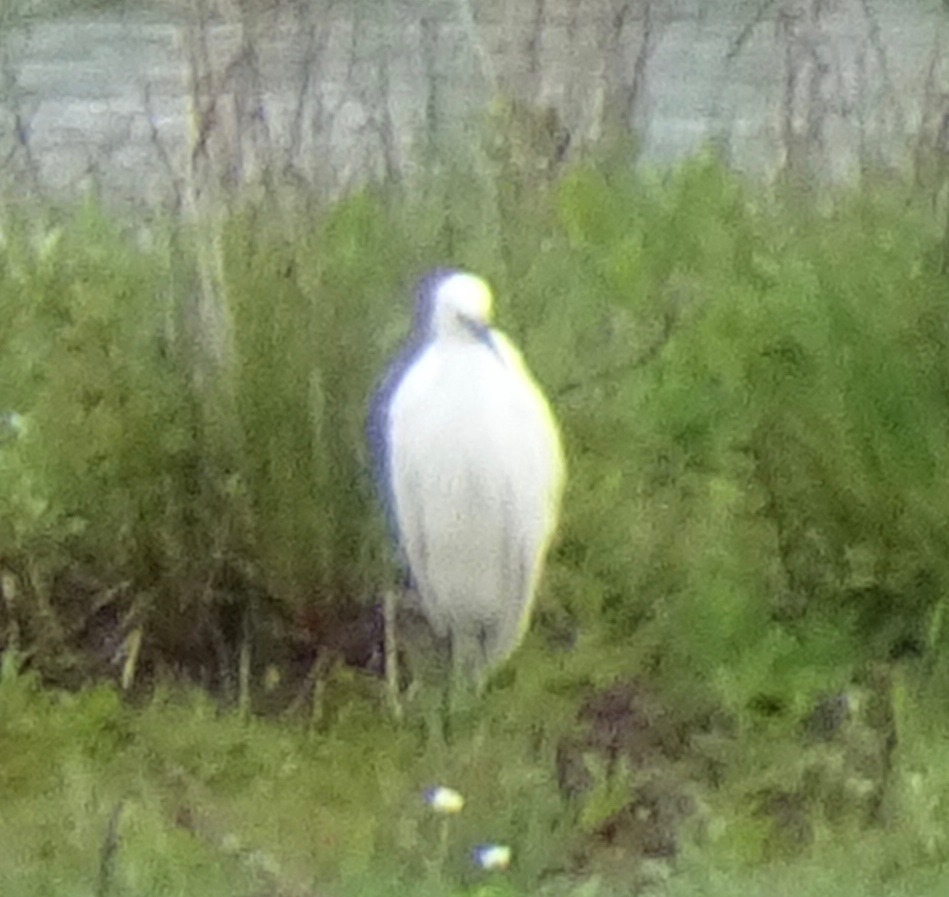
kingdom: Animalia
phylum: Chordata
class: Aves
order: Pelecaniformes
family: Ardeidae
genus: Egretta
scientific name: Egretta garzetta
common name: Little egret
